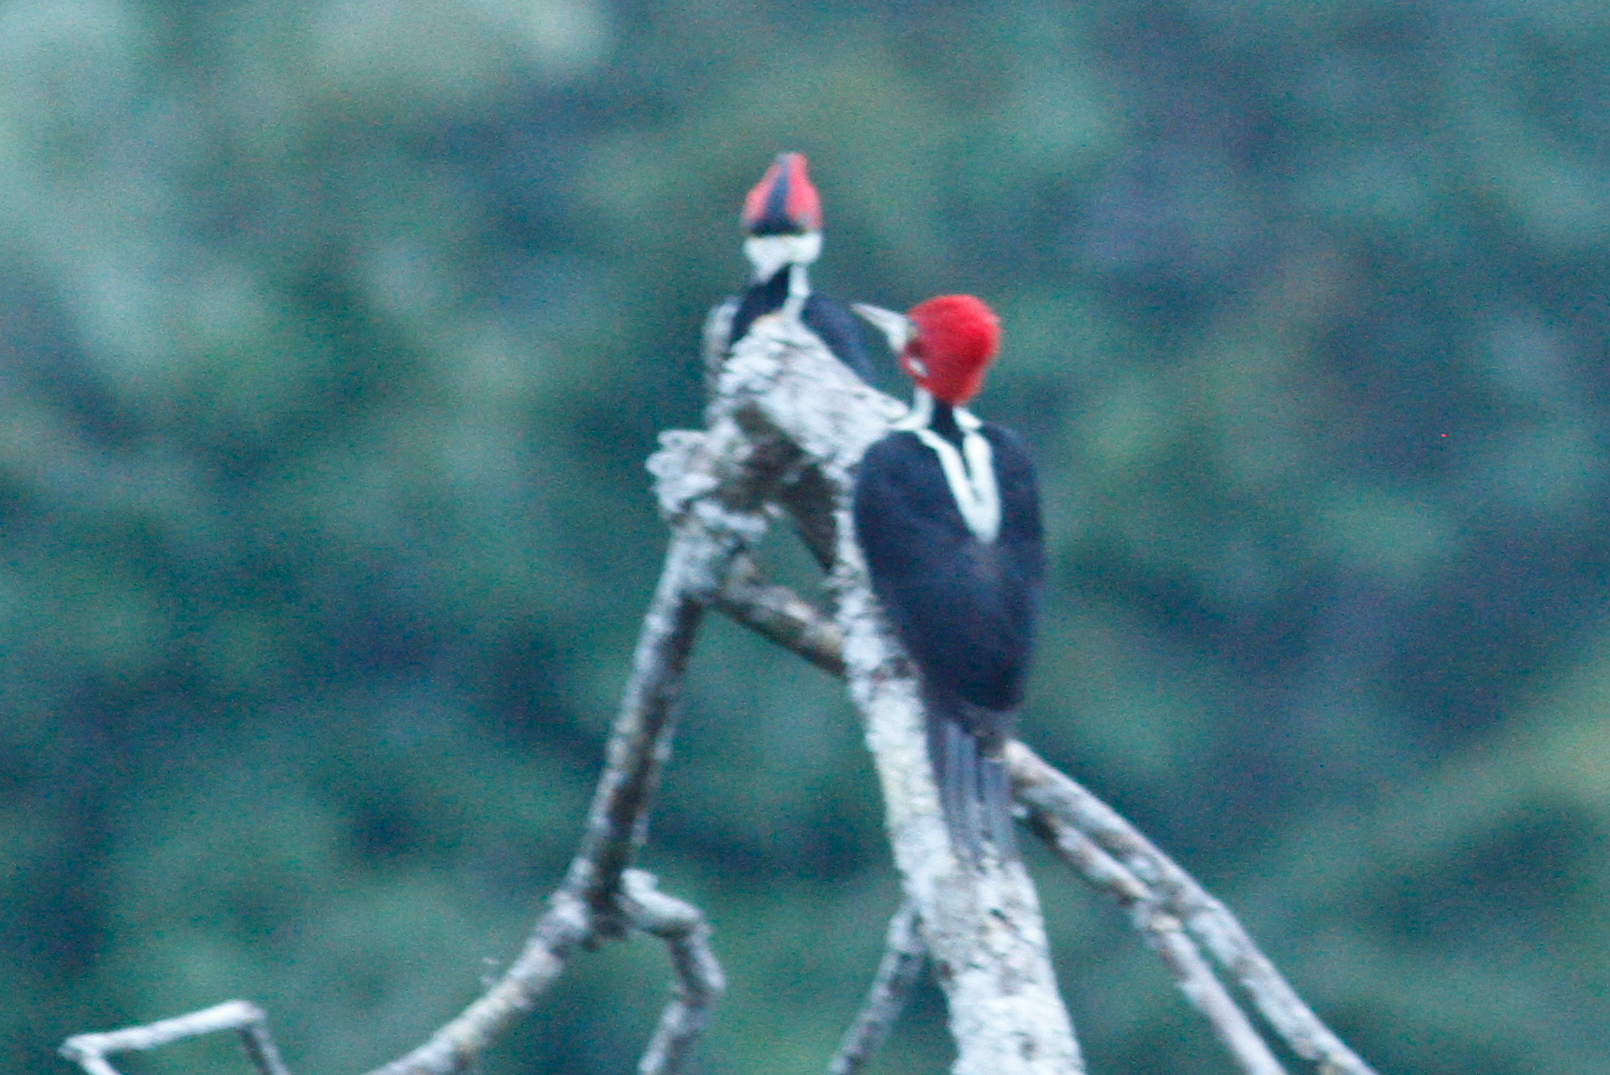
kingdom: Animalia
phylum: Chordata
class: Aves
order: Piciformes
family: Picidae
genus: Campephilus
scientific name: Campephilus melanoleucos
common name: Crimson-crested woodpecker
